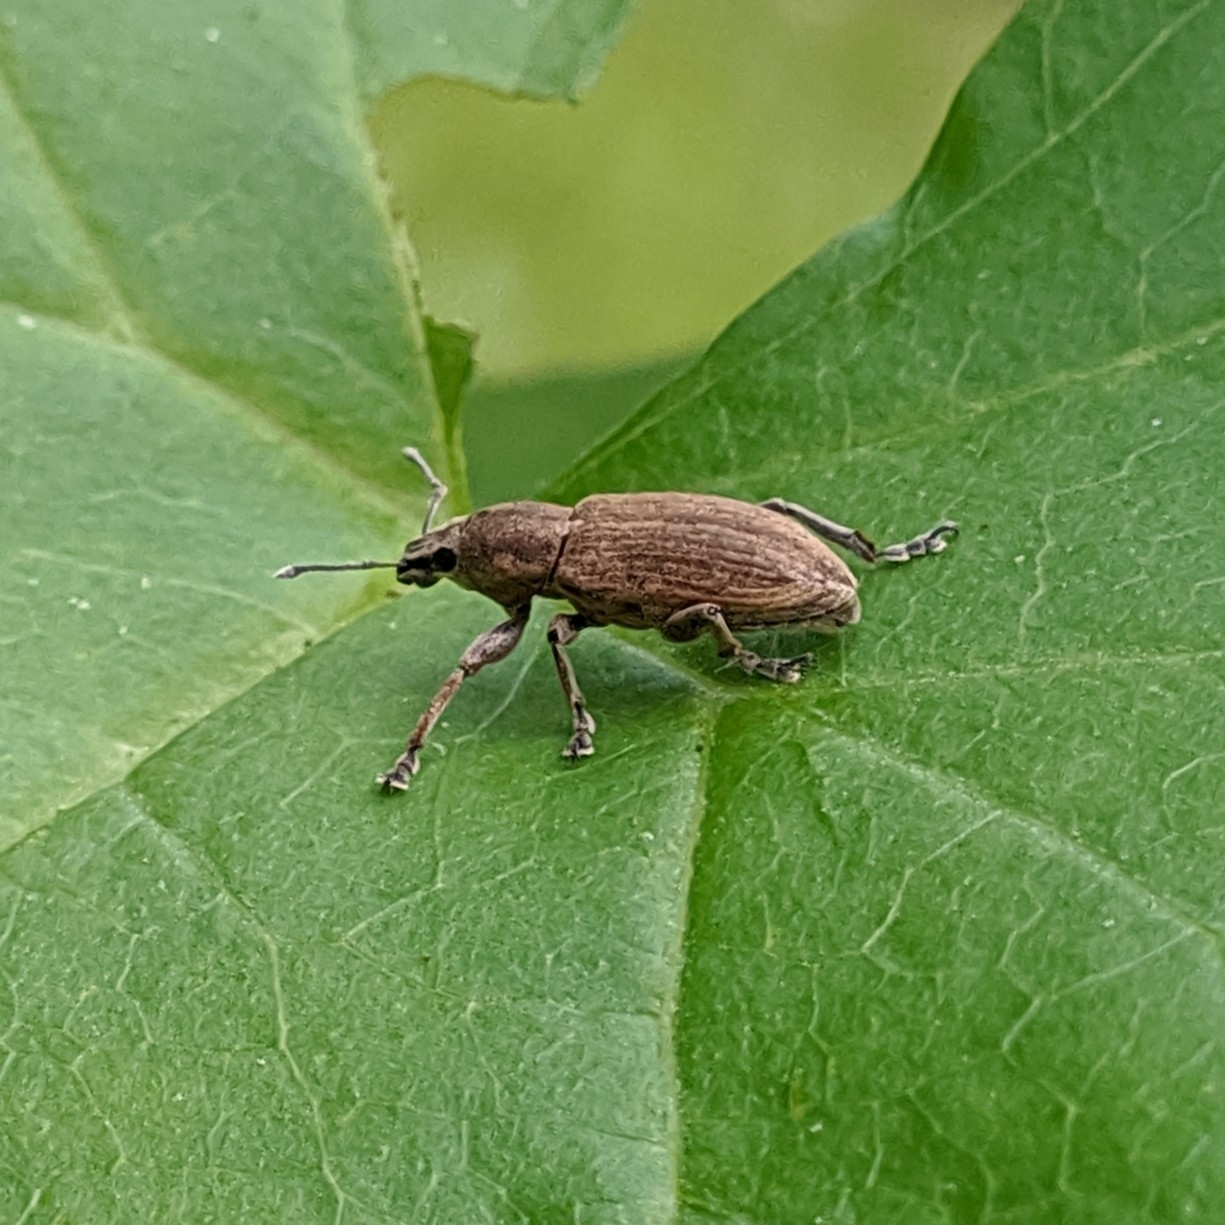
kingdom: Animalia
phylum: Arthropoda
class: Insecta
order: Coleoptera
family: Curculionidae
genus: Tanymecus
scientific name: Tanymecus palliatus
